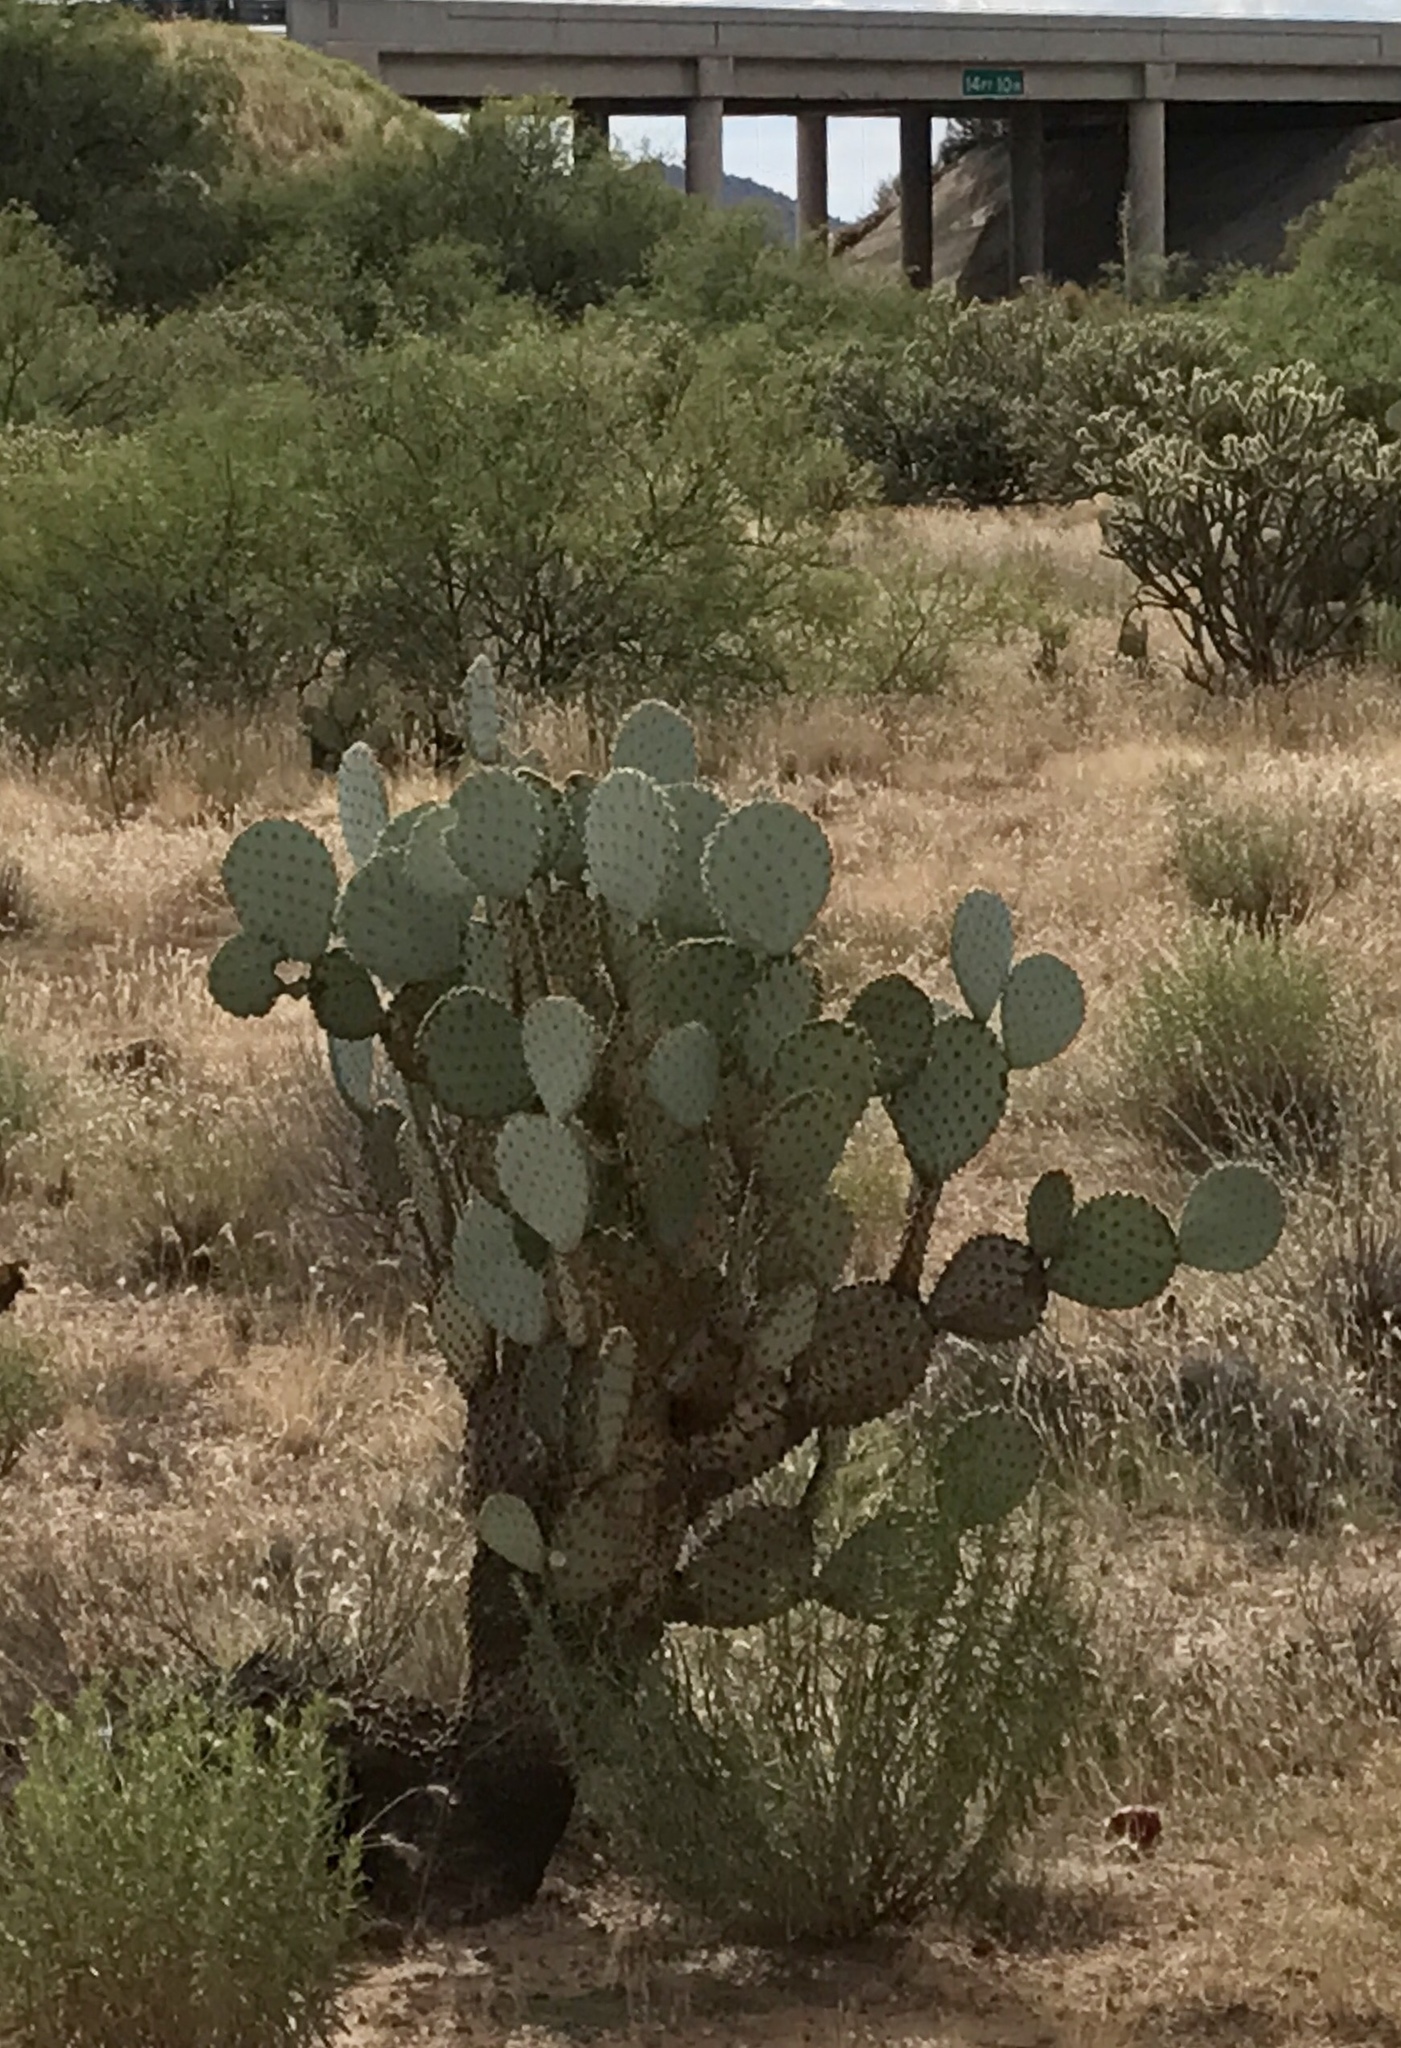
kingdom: Plantae
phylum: Tracheophyta
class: Magnoliopsida
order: Caryophyllales
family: Cactaceae
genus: Opuntia
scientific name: Opuntia chlorotica
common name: Dollar-joint prickly-pear
